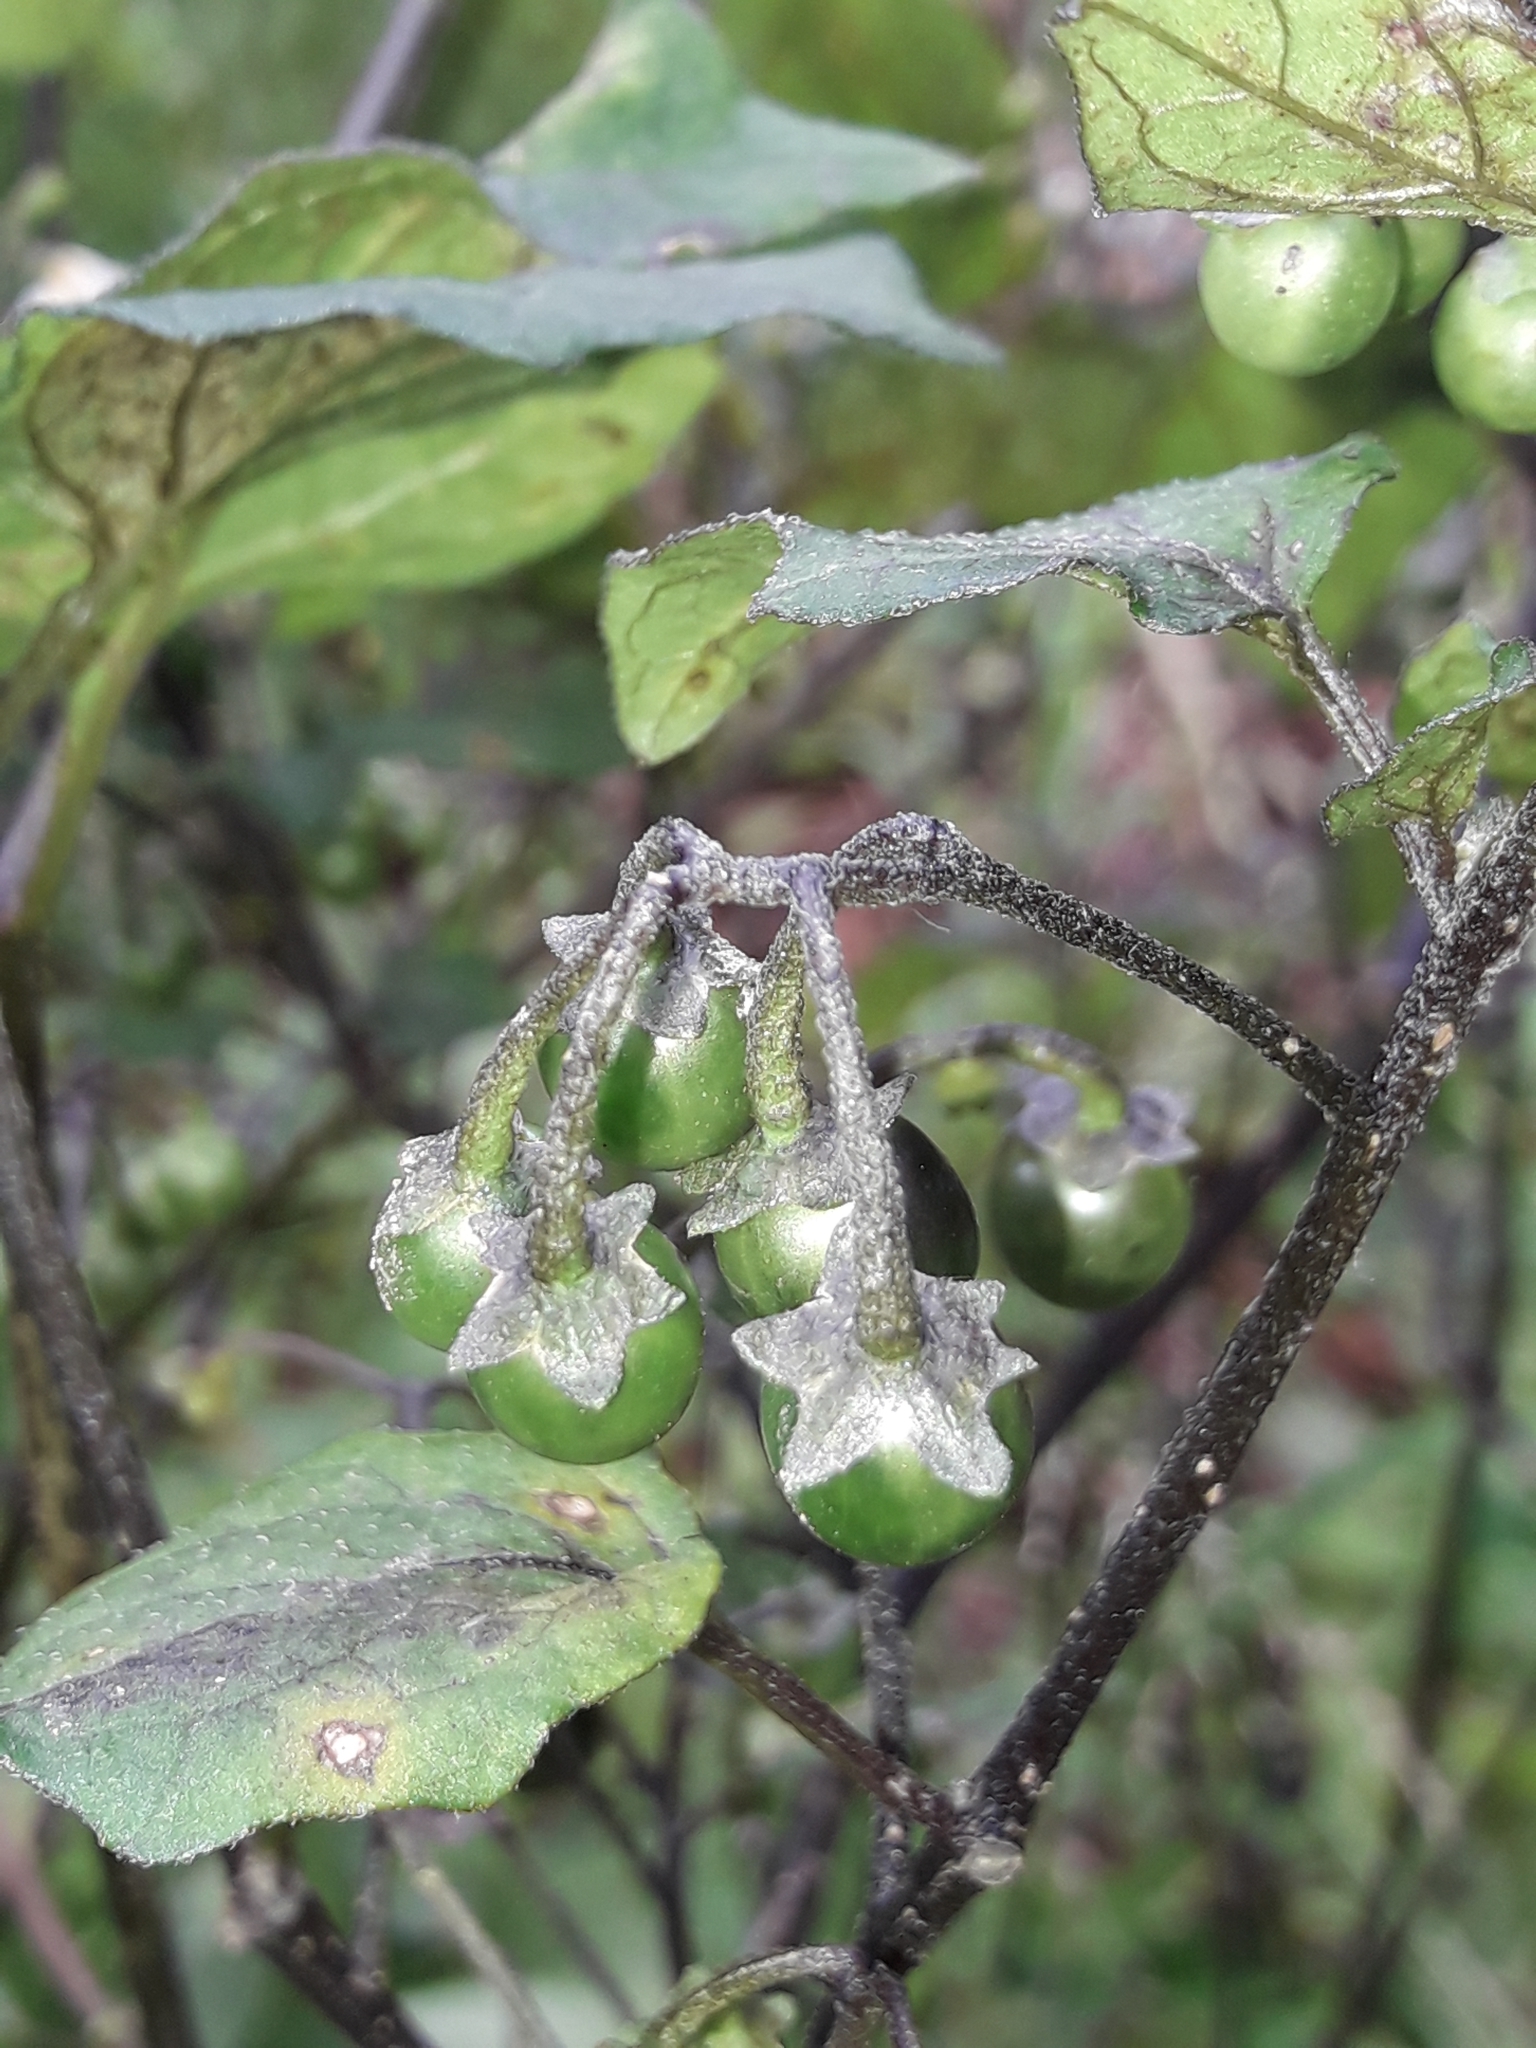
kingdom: Plantae
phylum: Tracheophyta
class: Magnoliopsida
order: Solanales
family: Solanaceae
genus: Solanum
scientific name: Solanum nigrum
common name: Black nightshade
